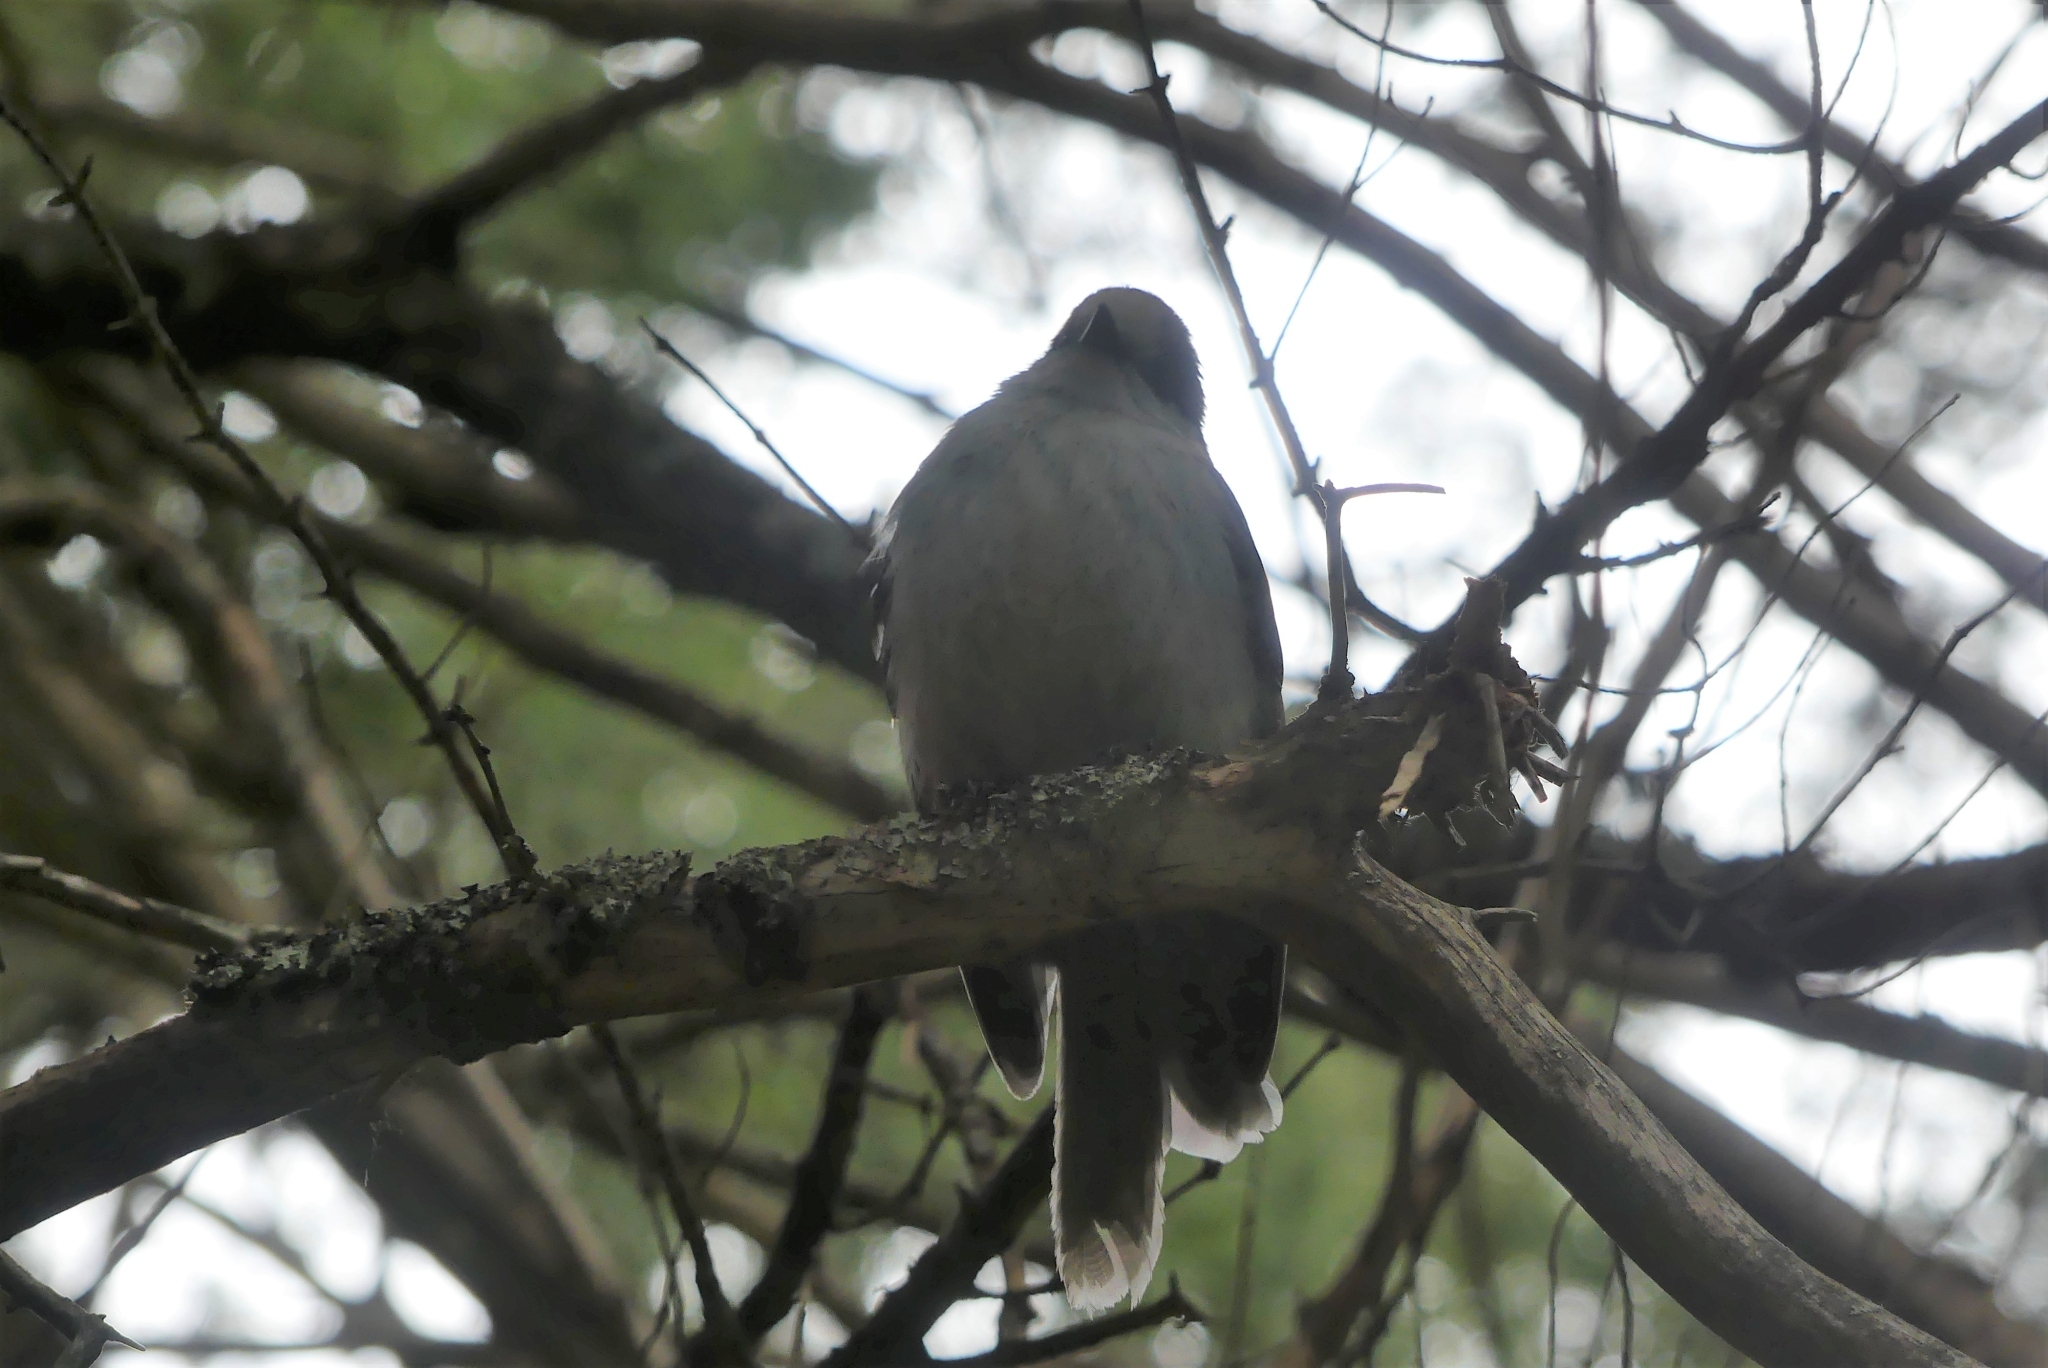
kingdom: Animalia
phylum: Chordata
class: Aves
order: Passeriformes
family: Corvidae
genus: Perisoreus
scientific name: Perisoreus canadensis
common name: Gray jay
